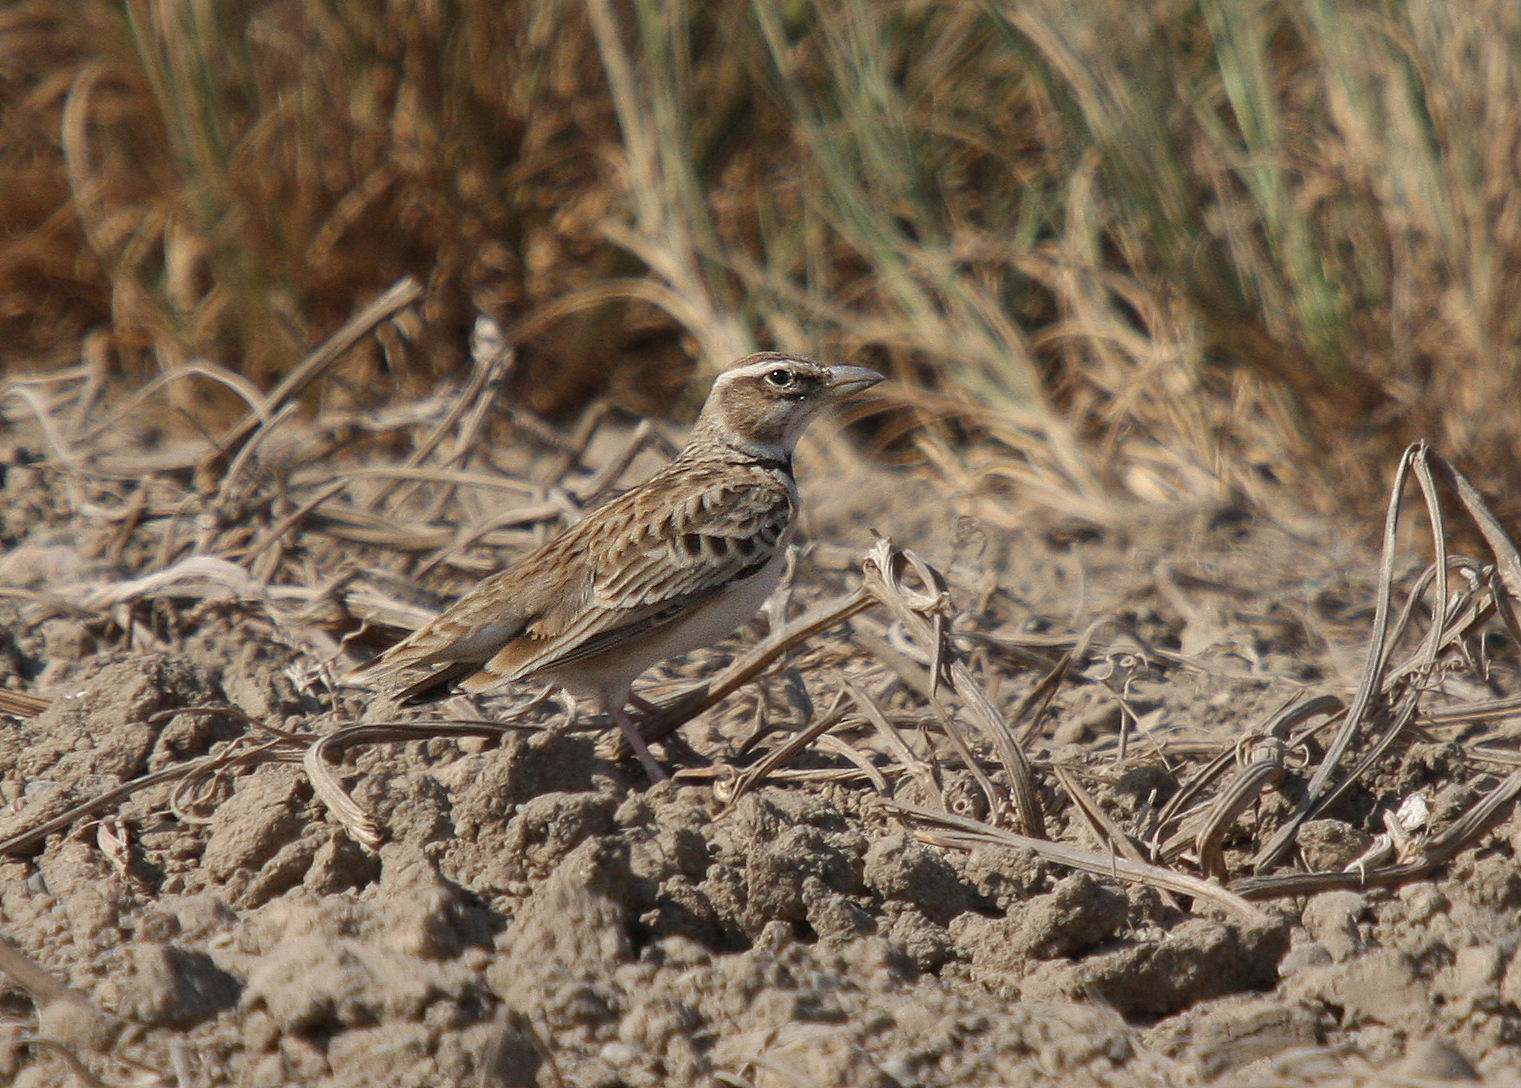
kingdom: Animalia
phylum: Chordata
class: Aves
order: Passeriformes
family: Alaudidae
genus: Melanocorypha
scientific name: Melanocorypha bimaculata
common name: Bimaculated lark
